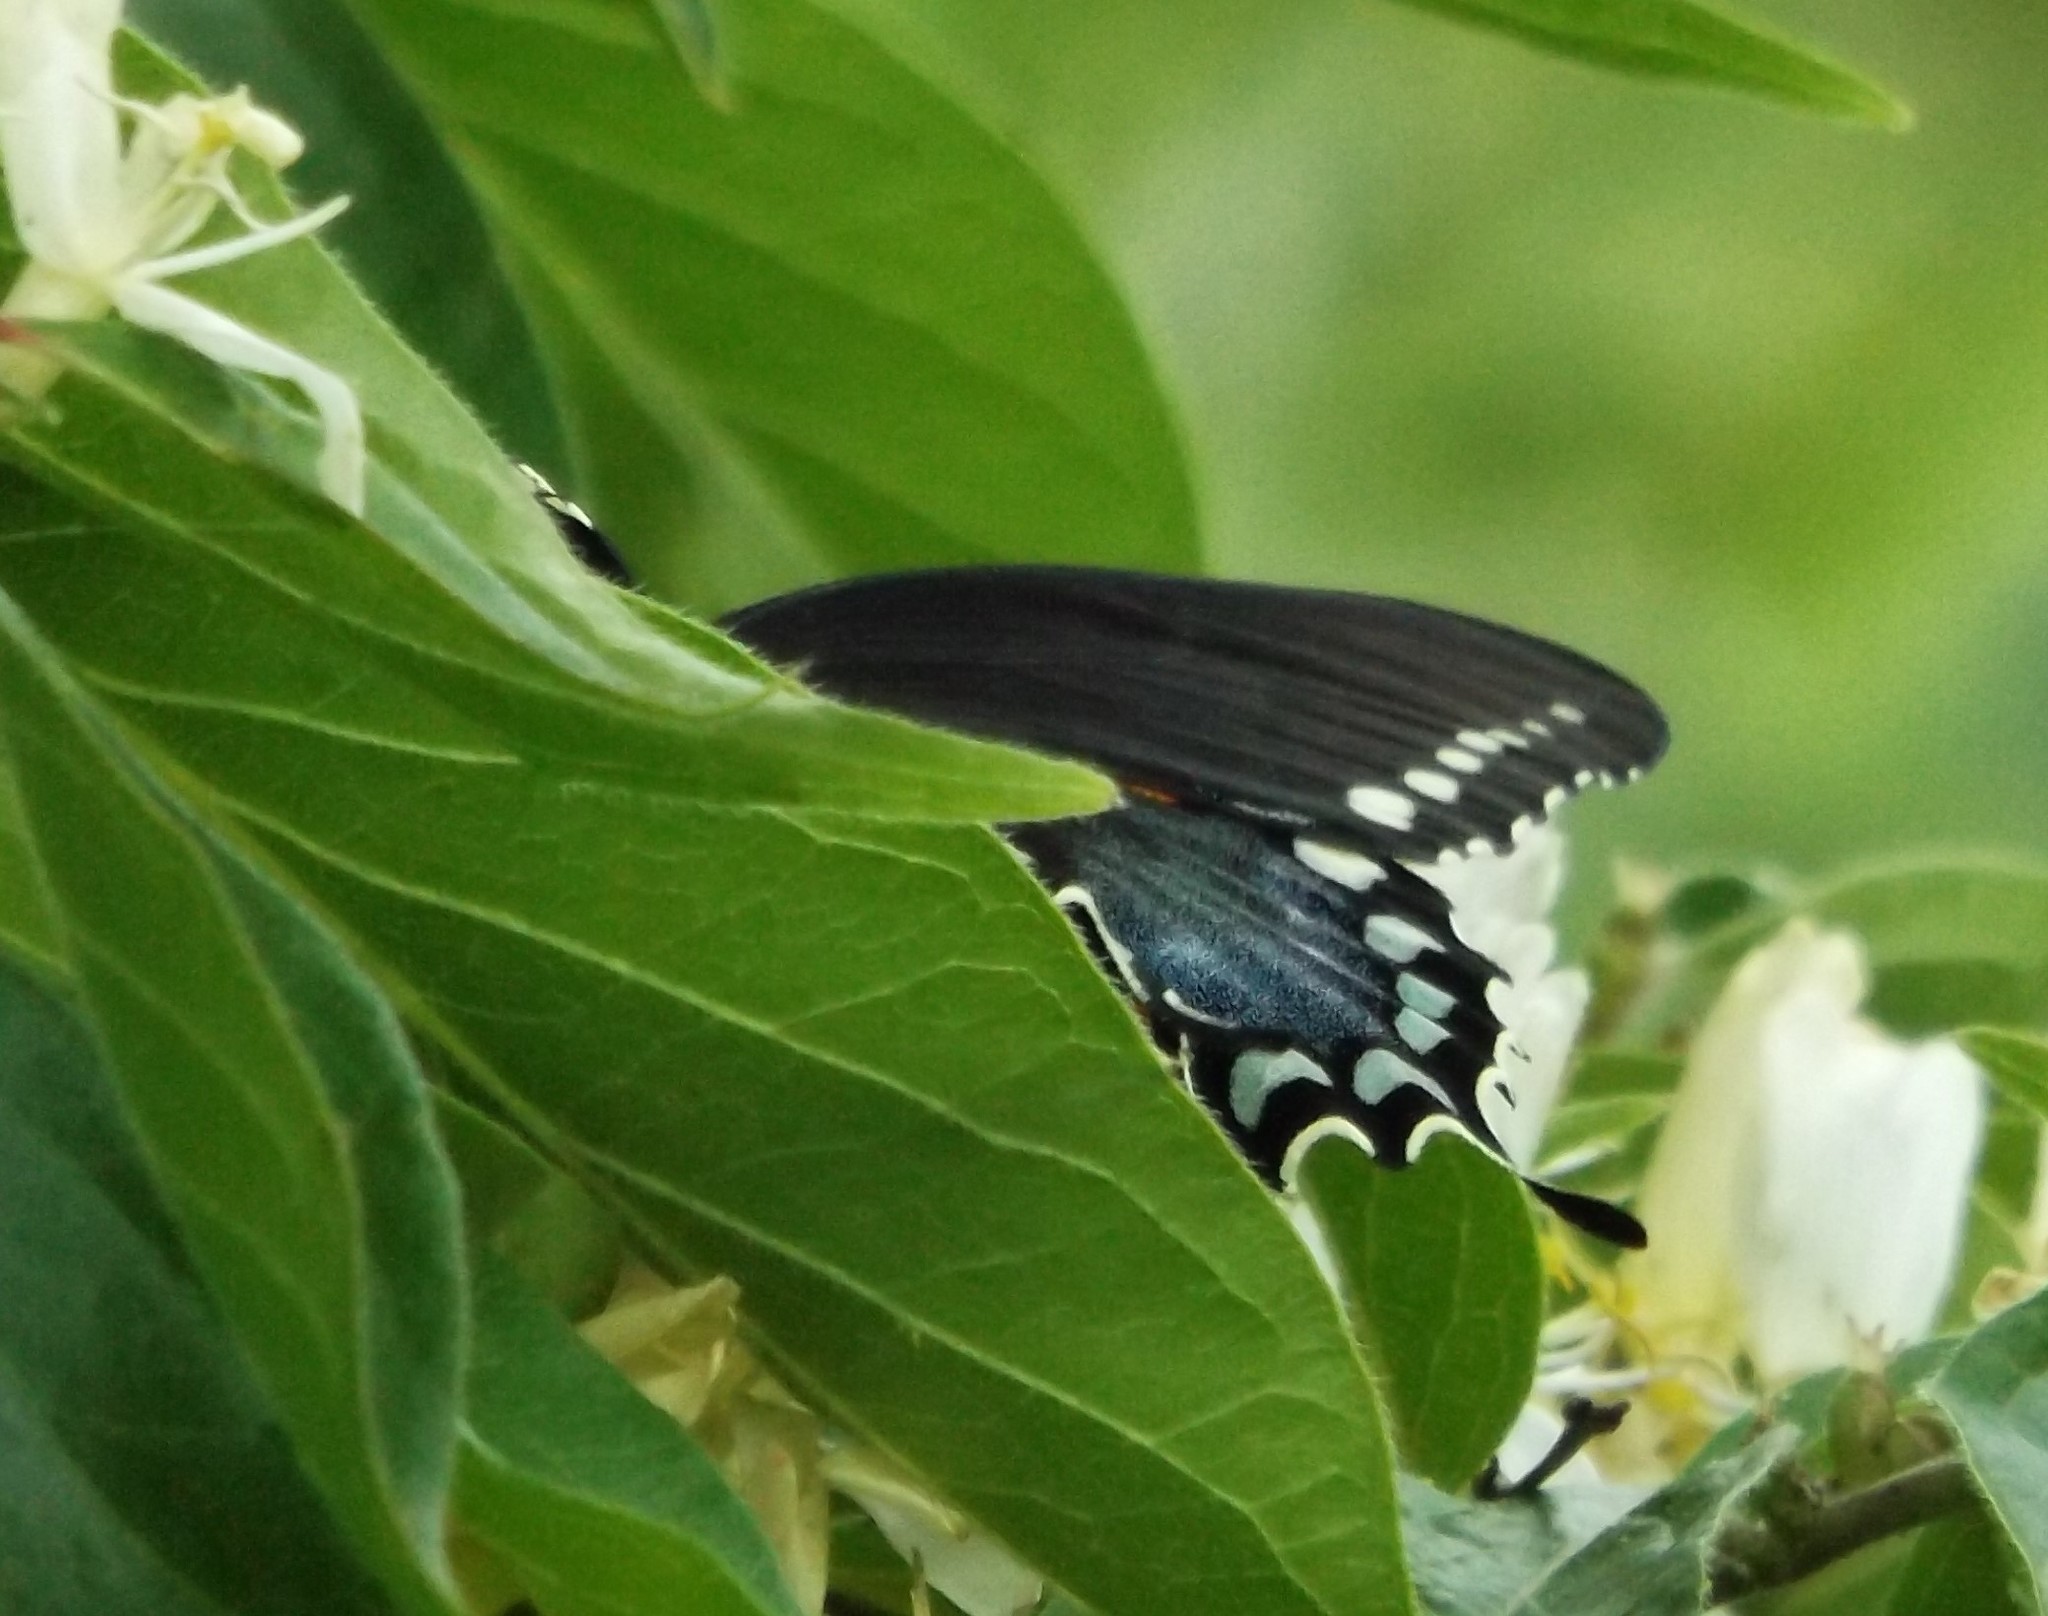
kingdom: Animalia
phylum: Arthropoda
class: Insecta
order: Lepidoptera
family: Papilionidae
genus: Papilio
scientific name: Papilio troilus
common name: Spicebush swallowtail
